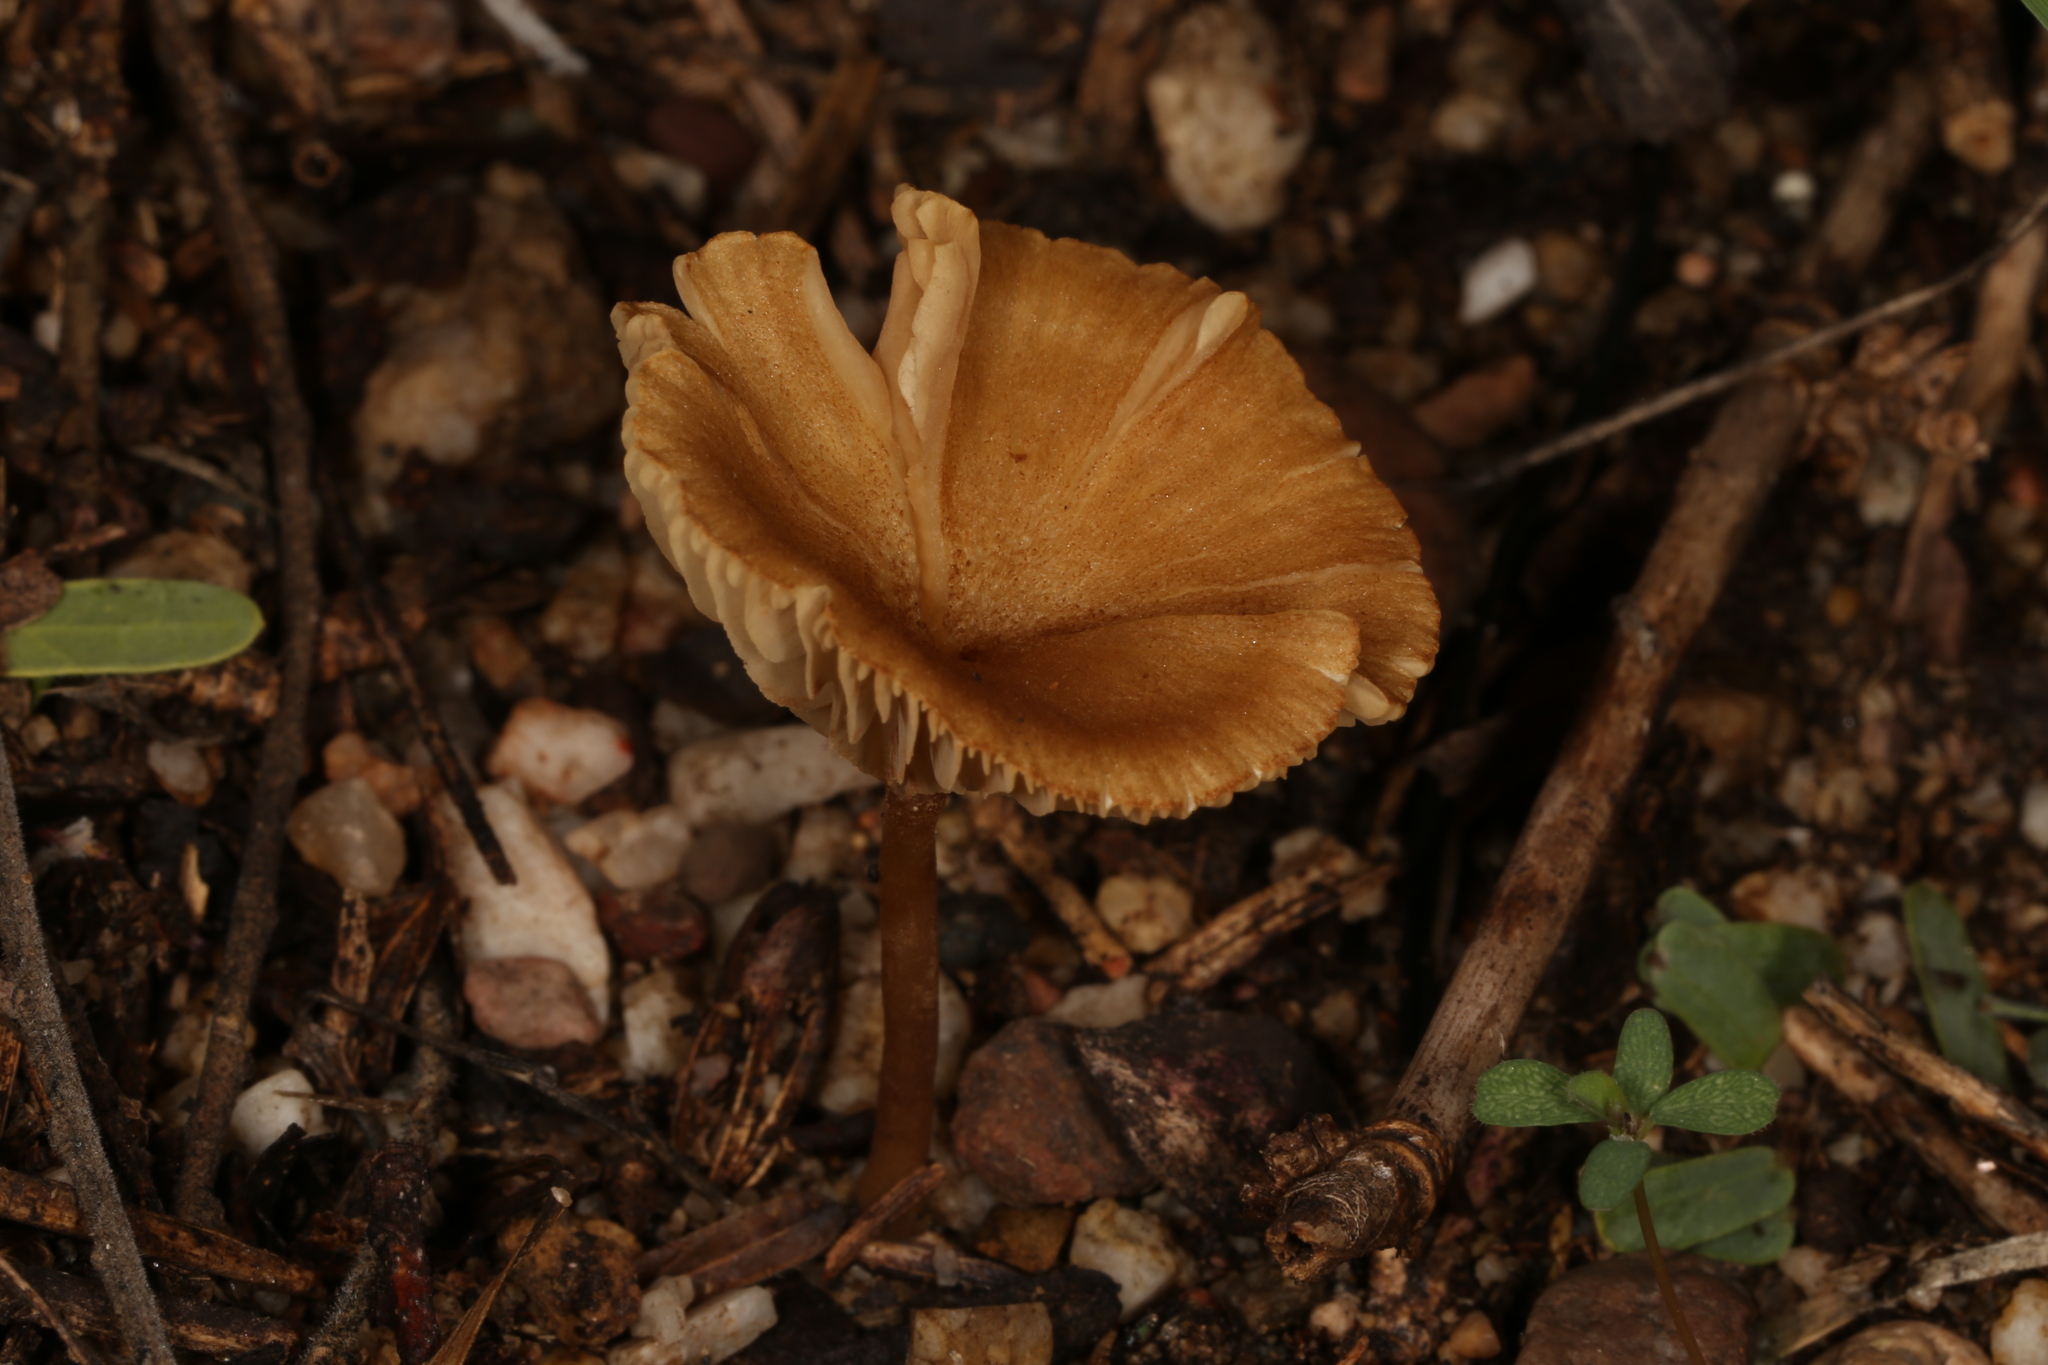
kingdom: Fungi
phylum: Basidiomycota
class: Agaricomycetes
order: Agaricales
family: Crepidotaceae
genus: Crepidotus
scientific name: Crepidotus subfulviceps
